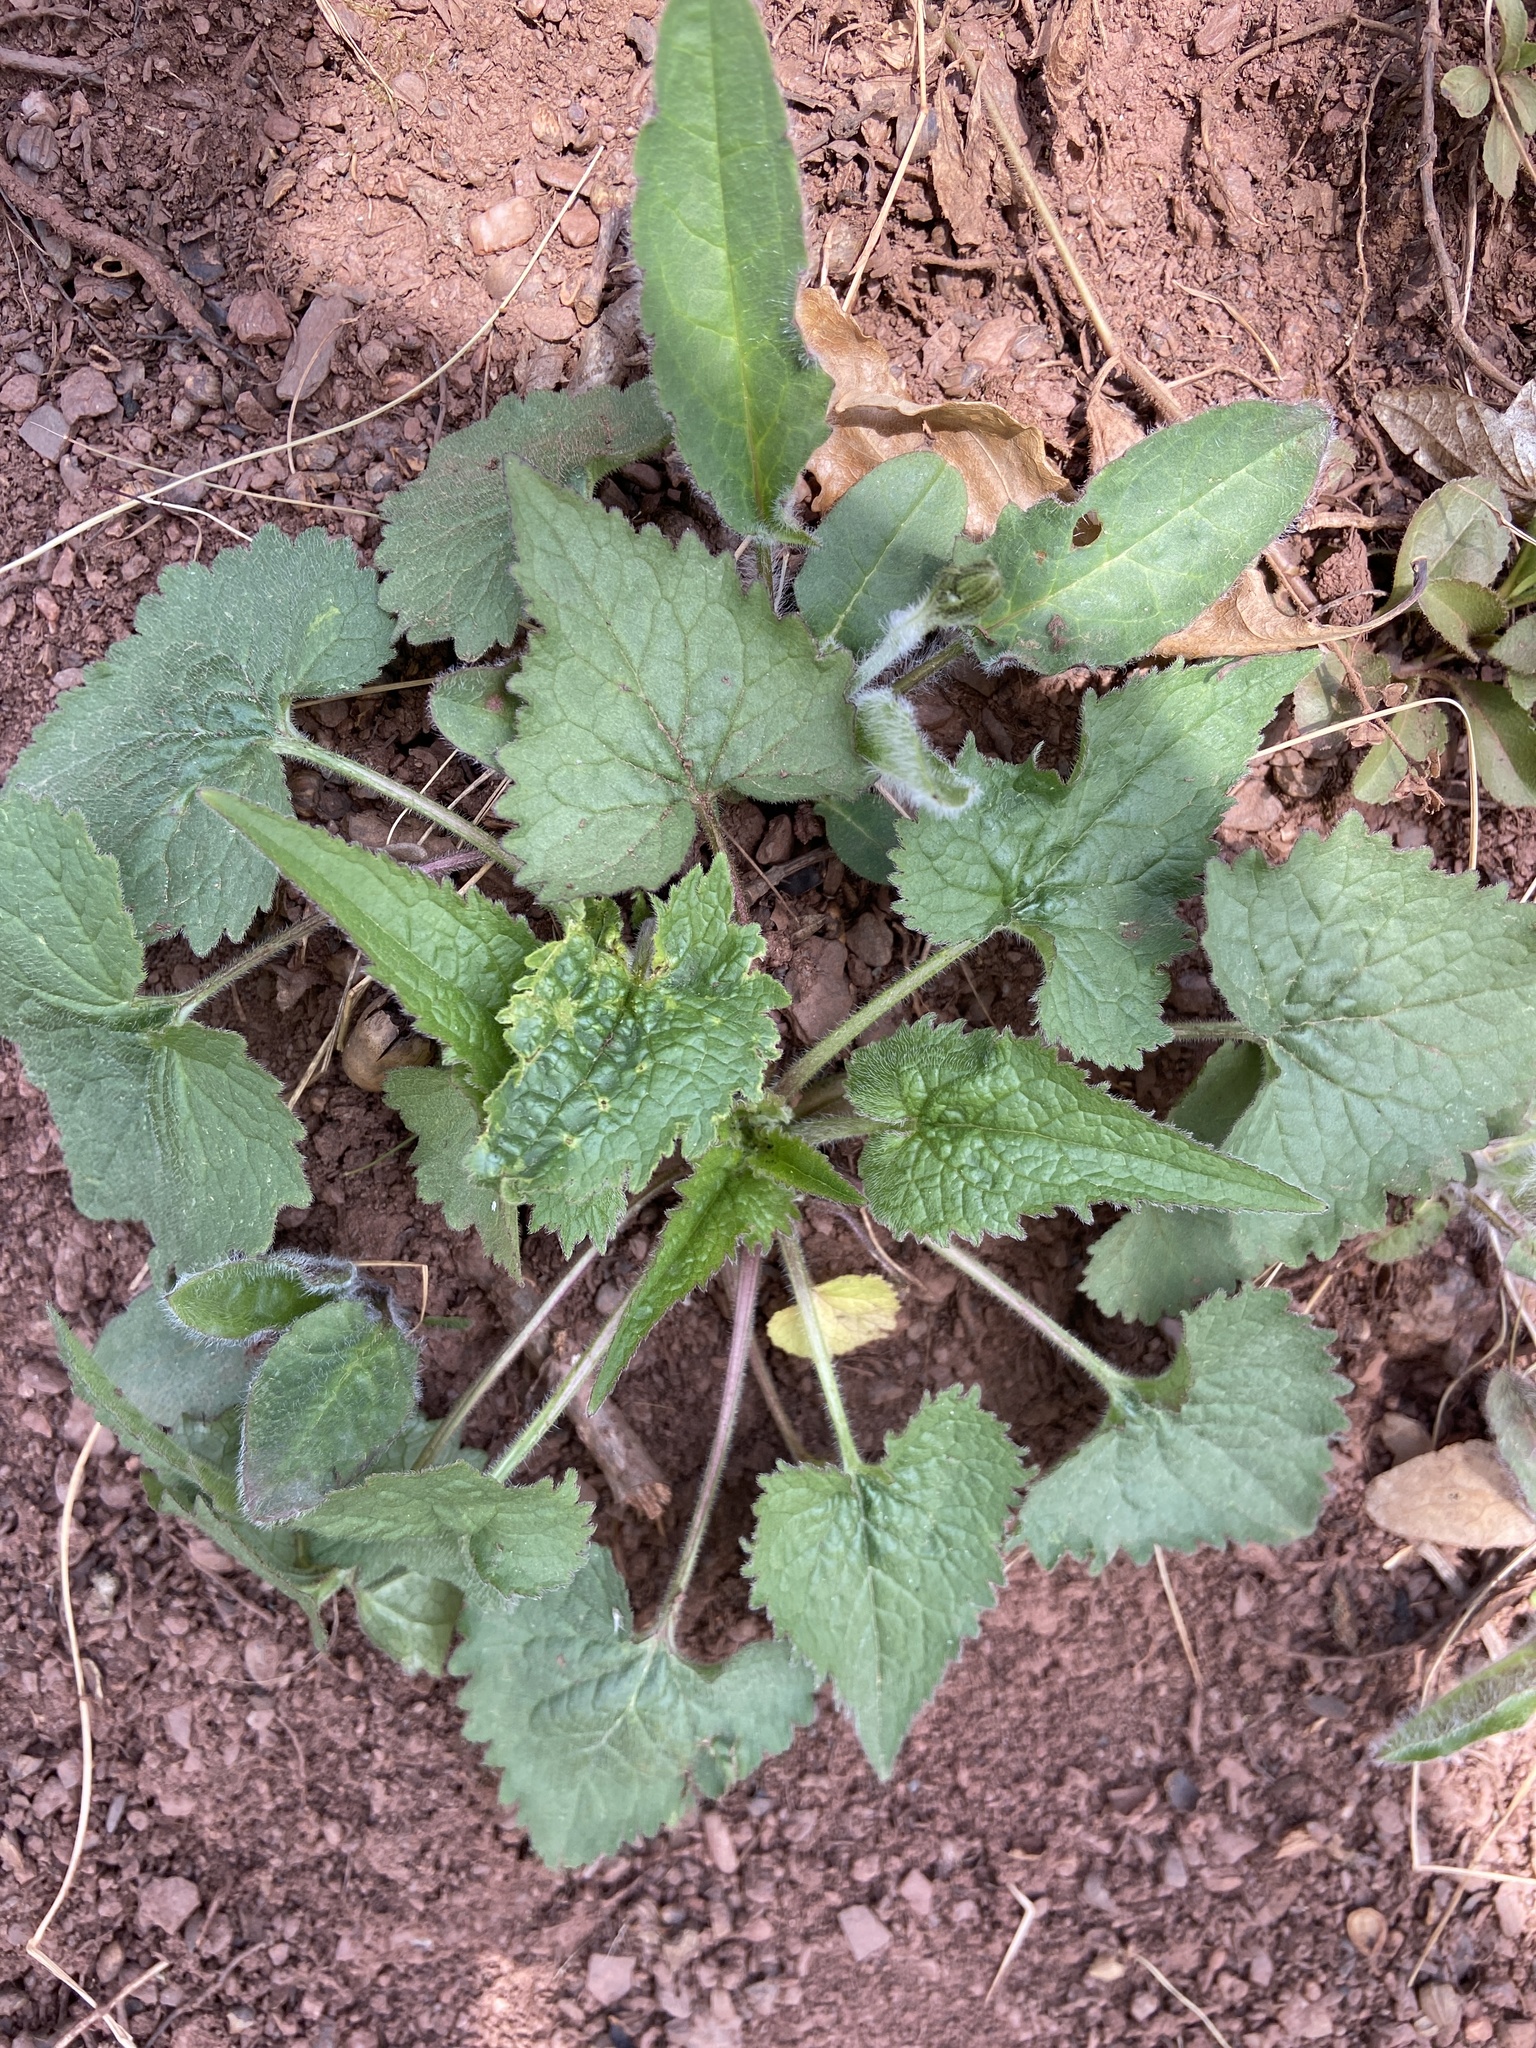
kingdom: Plantae
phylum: Tracheophyta
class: Magnoliopsida
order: Brassicales
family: Brassicaceae
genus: Lunaria
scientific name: Lunaria annua
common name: Honesty
